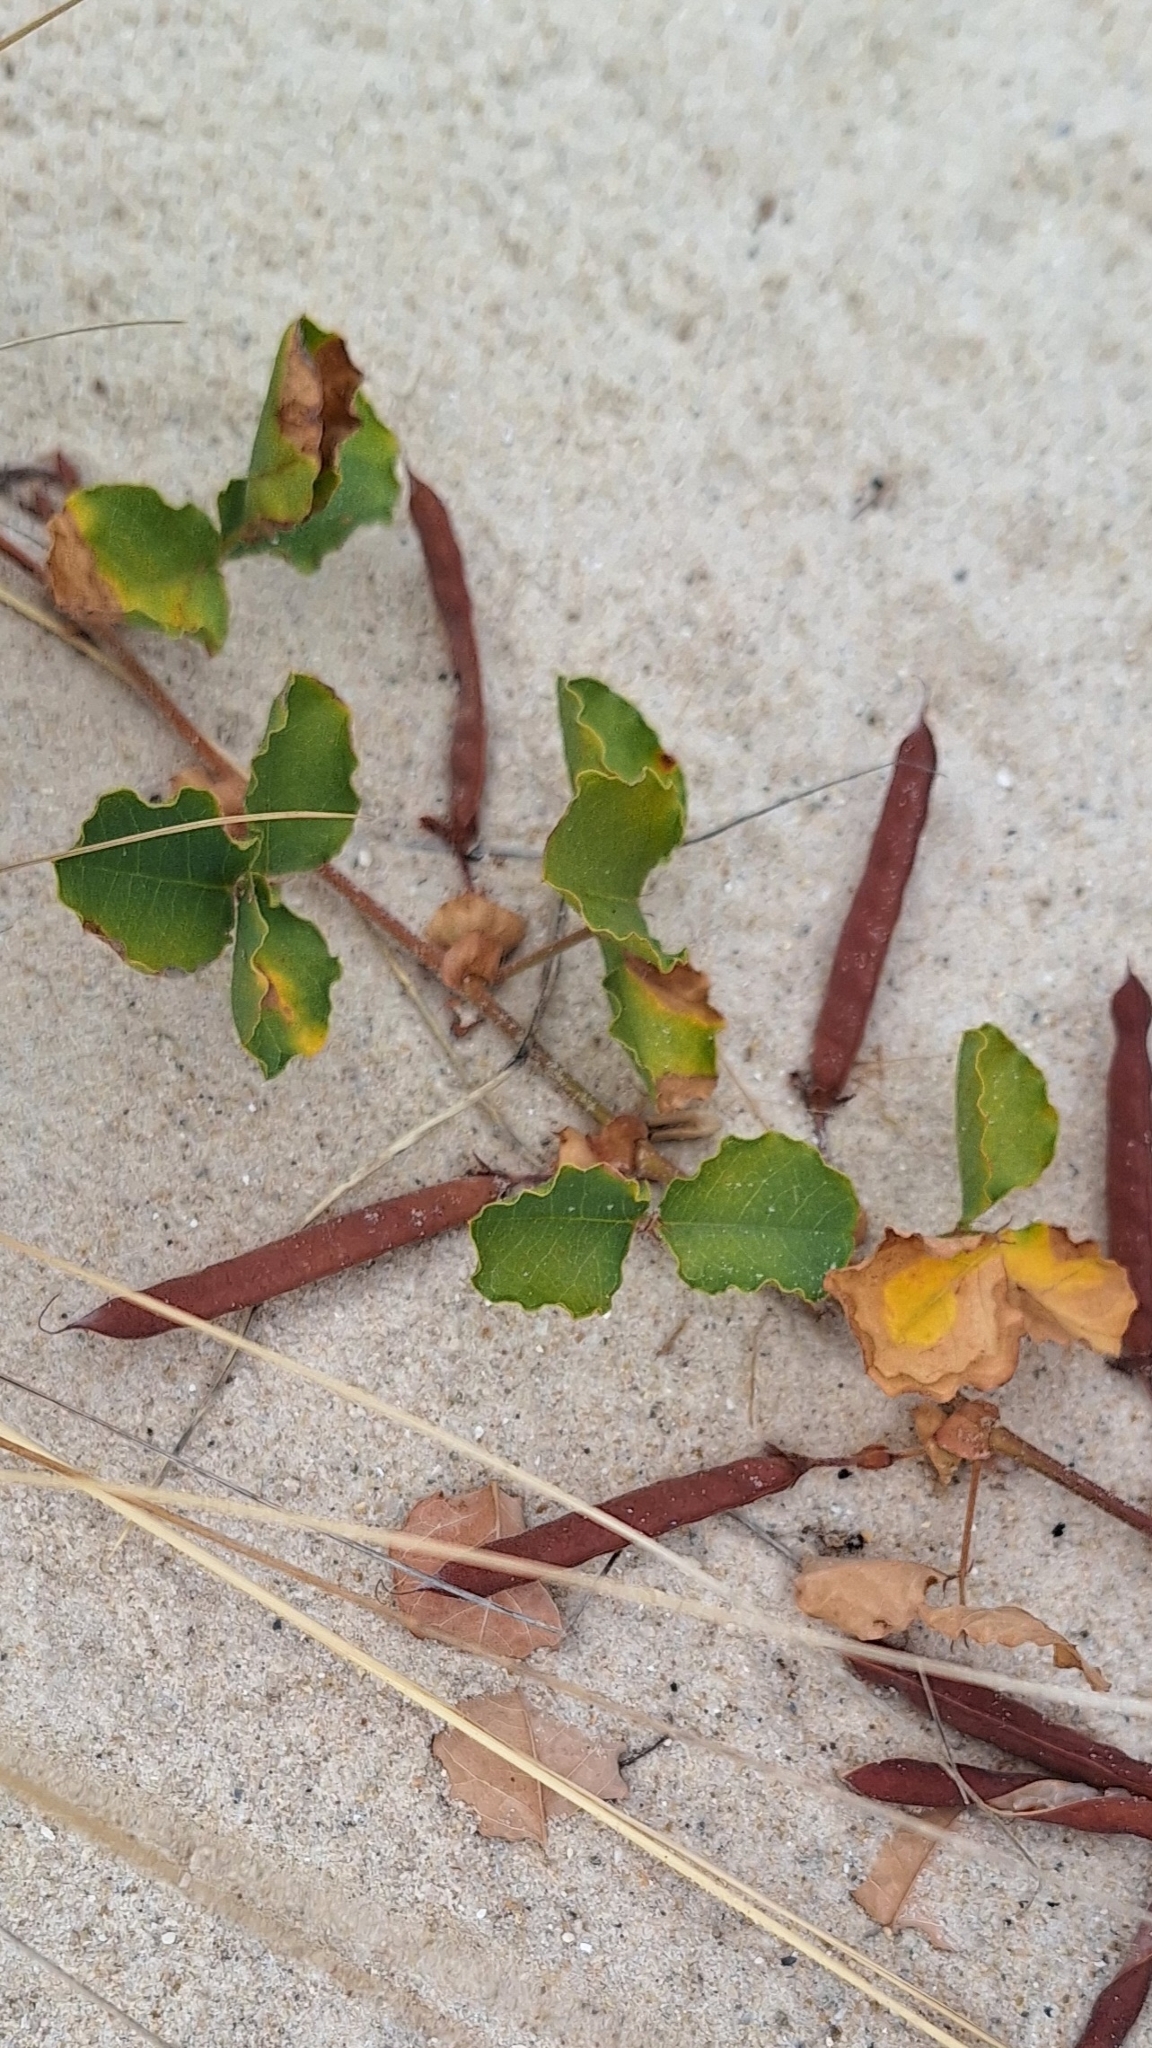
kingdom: Plantae
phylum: Tracheophyta
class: Magnoliopsida
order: Fabales
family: Fabaceae
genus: Kennedia
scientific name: Kennedia prostrata
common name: Running-postman
